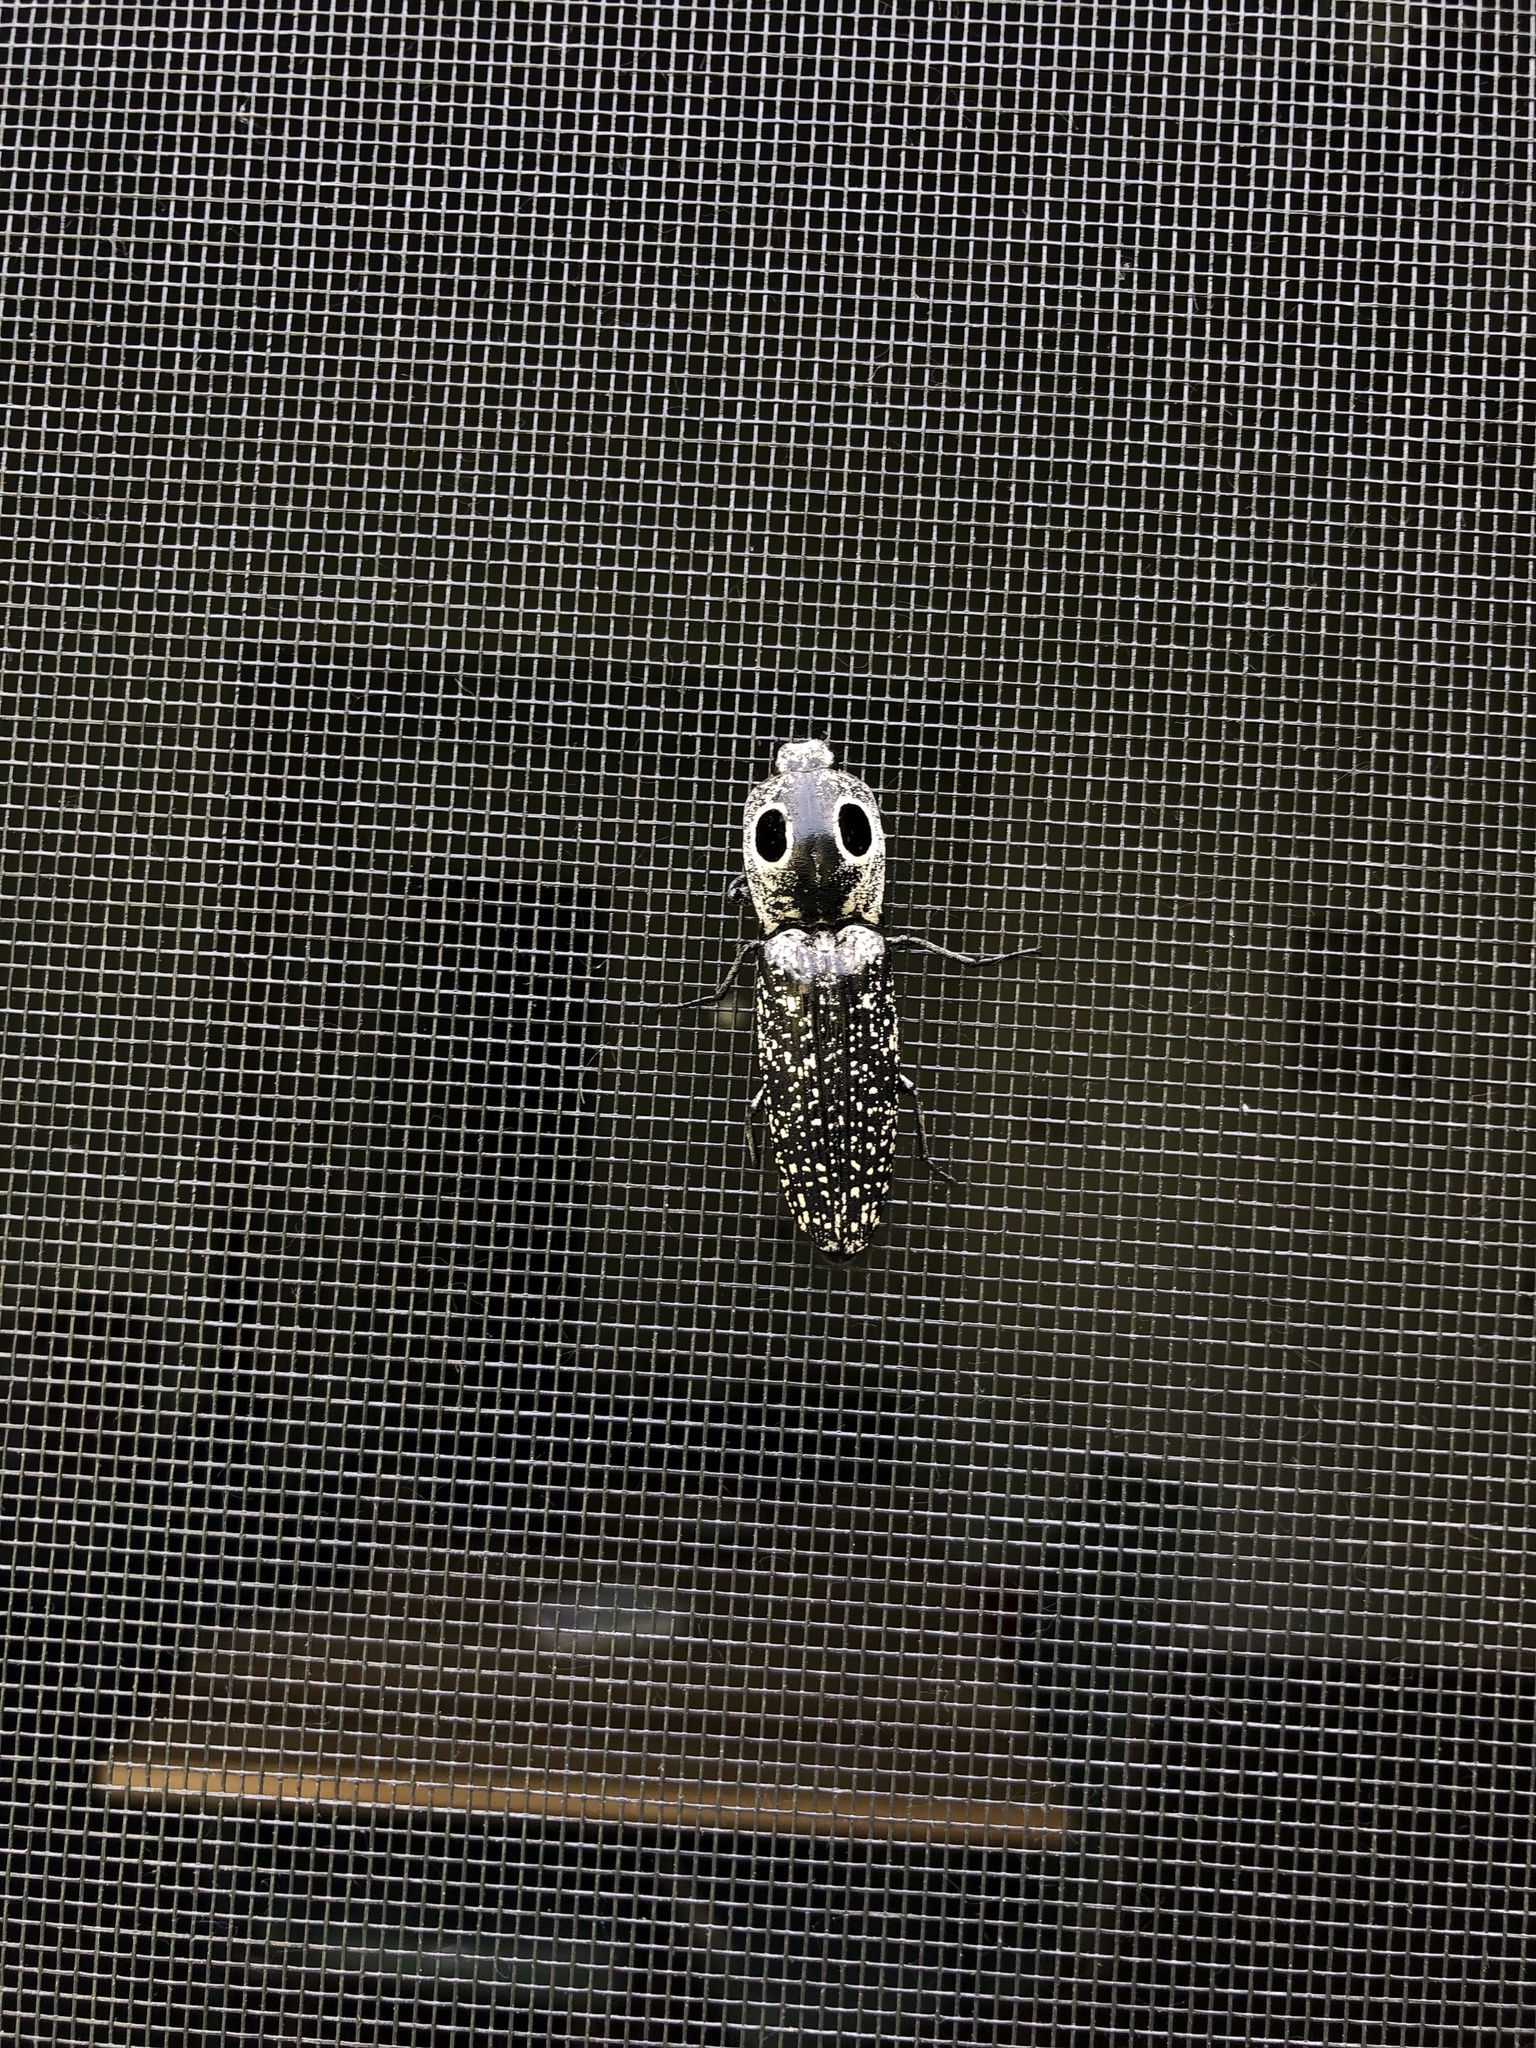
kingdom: Animalia
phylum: Arthropoda
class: Insecta
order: Coleoptera
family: Elateridae
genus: Alaus
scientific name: Alaus oculatus
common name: Eastern eyed click beetle
